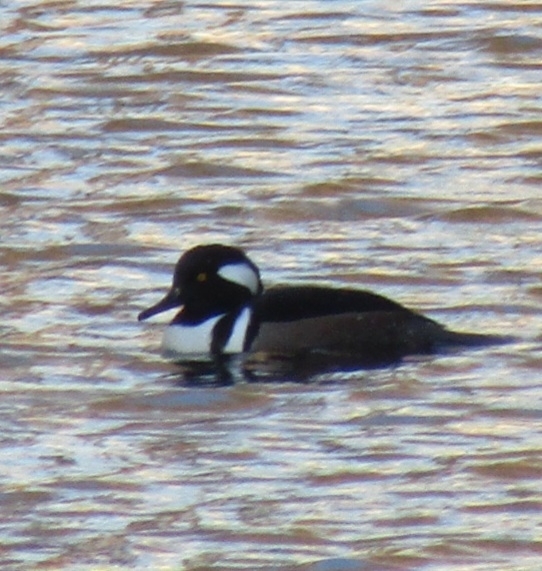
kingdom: Animalia
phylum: Chordata
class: Aves
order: Anseriformes
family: Anatidae
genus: Lophodytes
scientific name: Lophodytes cucullatus
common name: Hooded merganser
